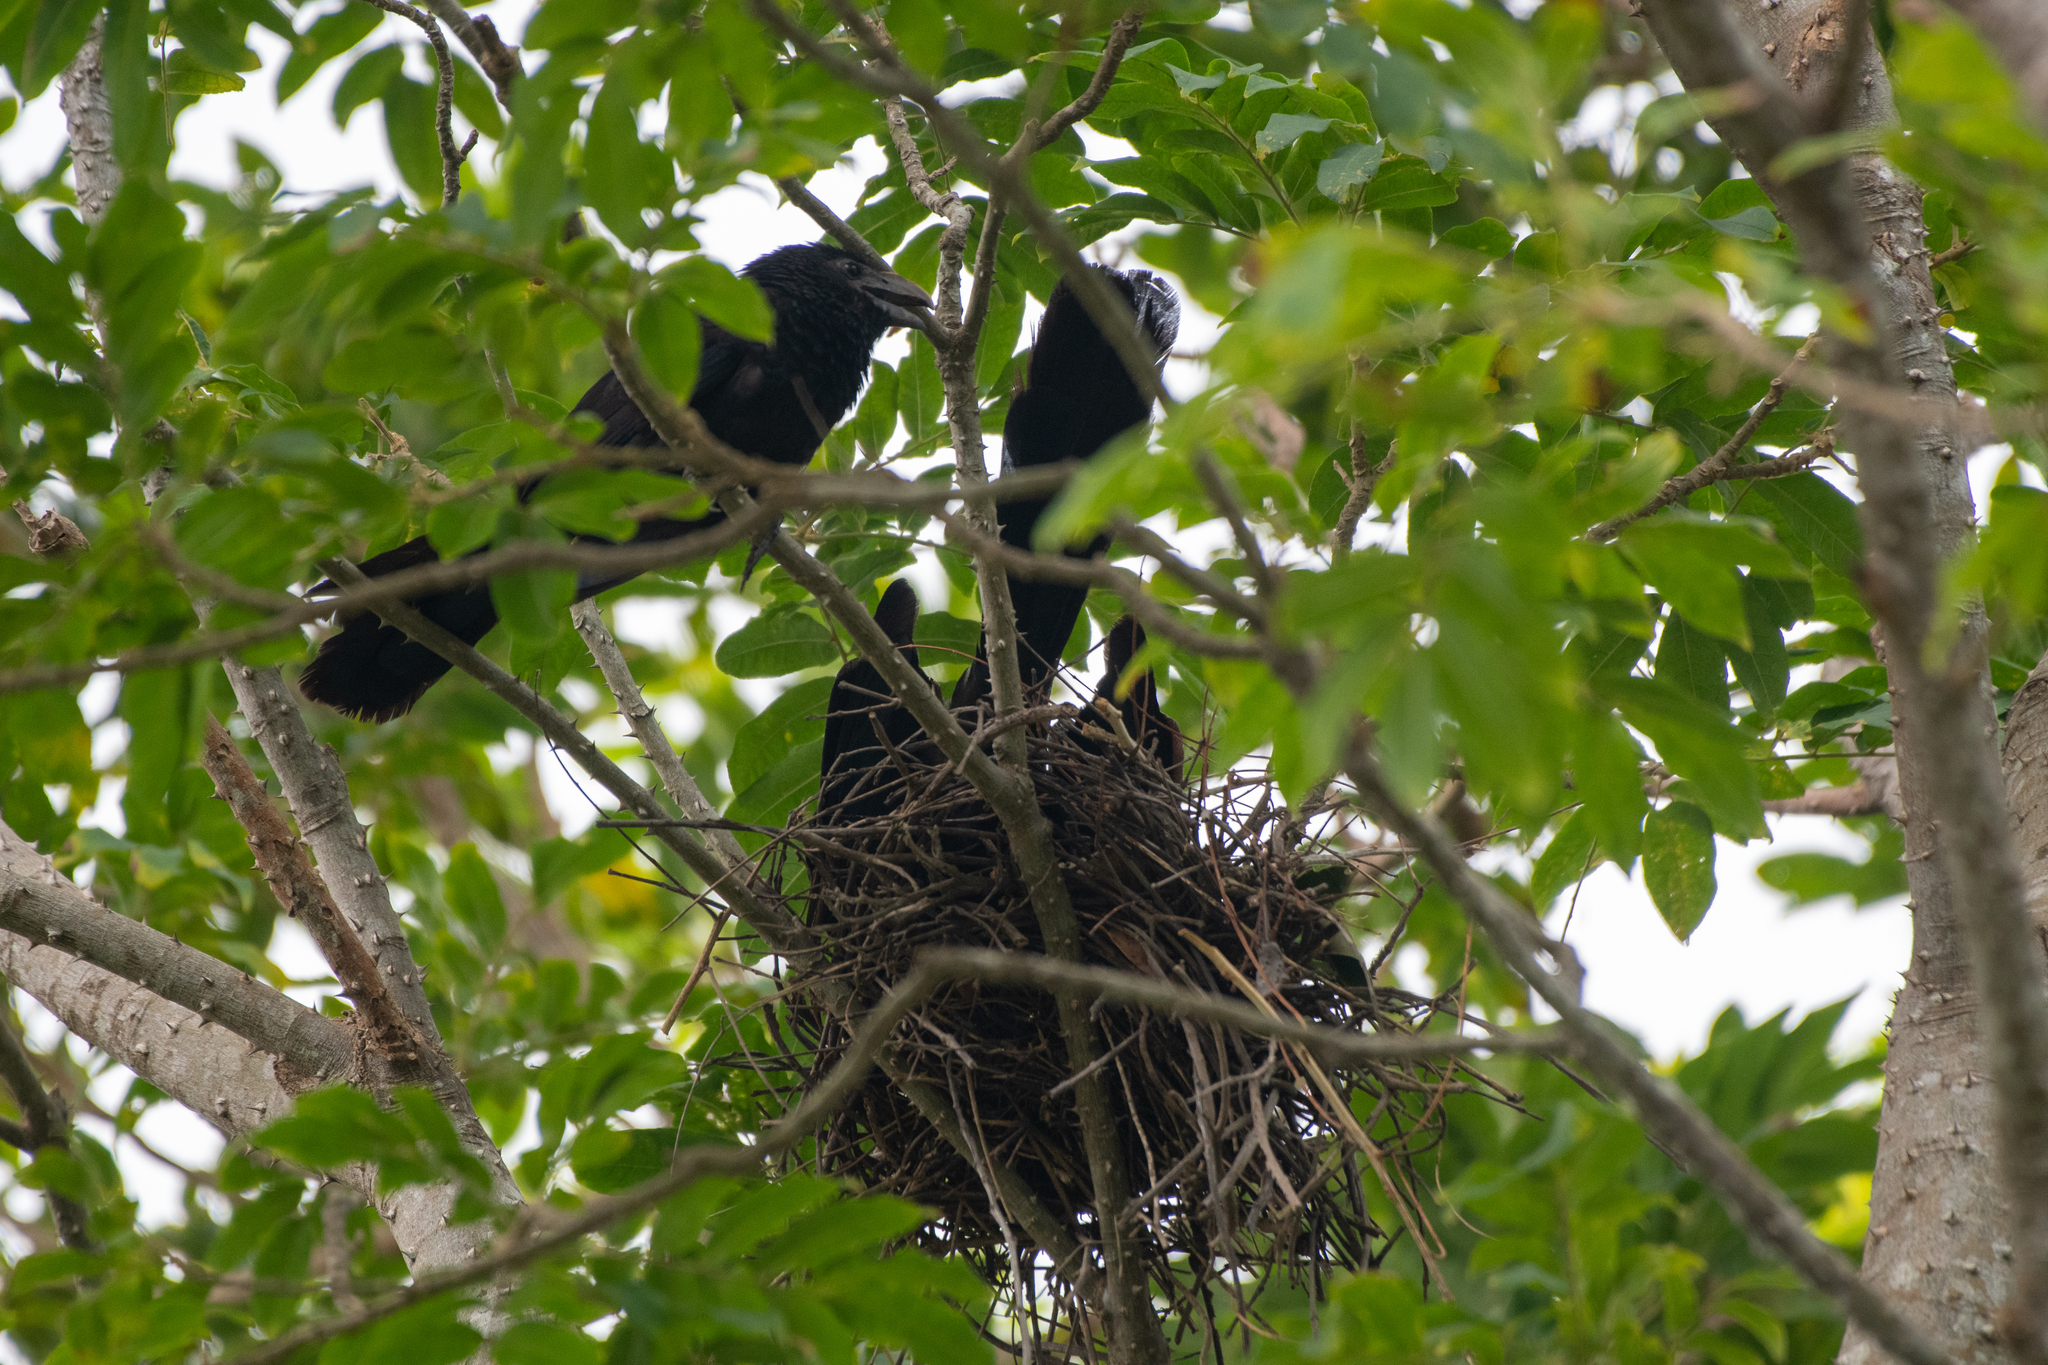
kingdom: Animalia
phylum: Chordata
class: Aves
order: Cuculiformes
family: Cuculidae
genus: Crotophaga
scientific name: Crotophaga ani
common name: Smooth-billed ani
